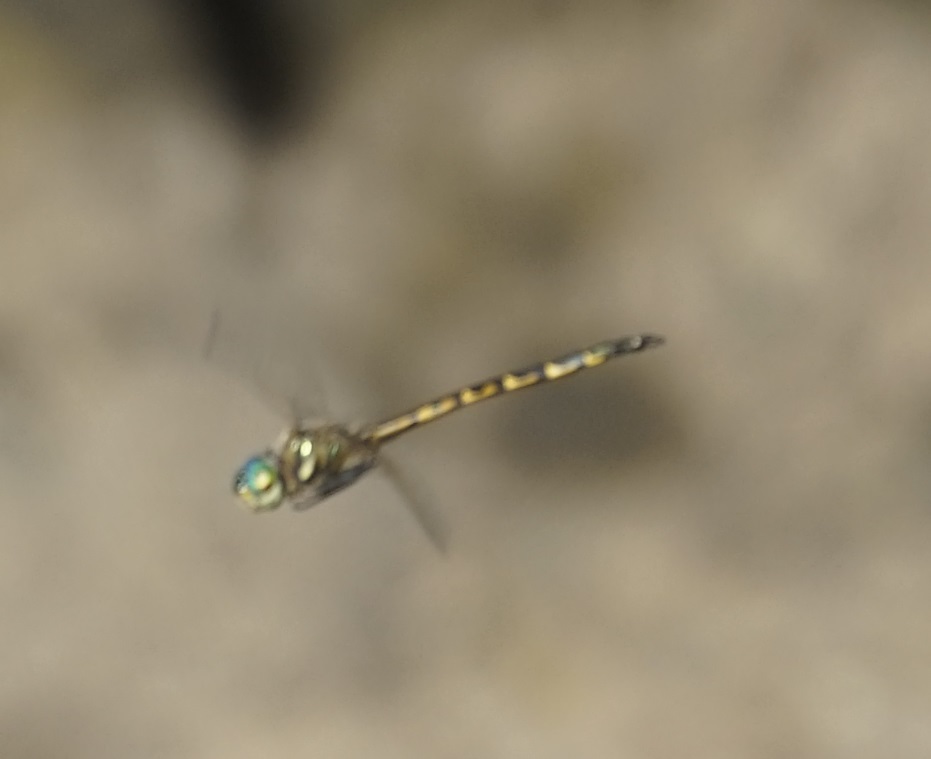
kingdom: Animalia
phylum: Arthropoda
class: Insecta
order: Odonata
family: Corduliidae
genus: Hemicordulia
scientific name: Hemicordulia australiae
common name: Sentry dragonfly
